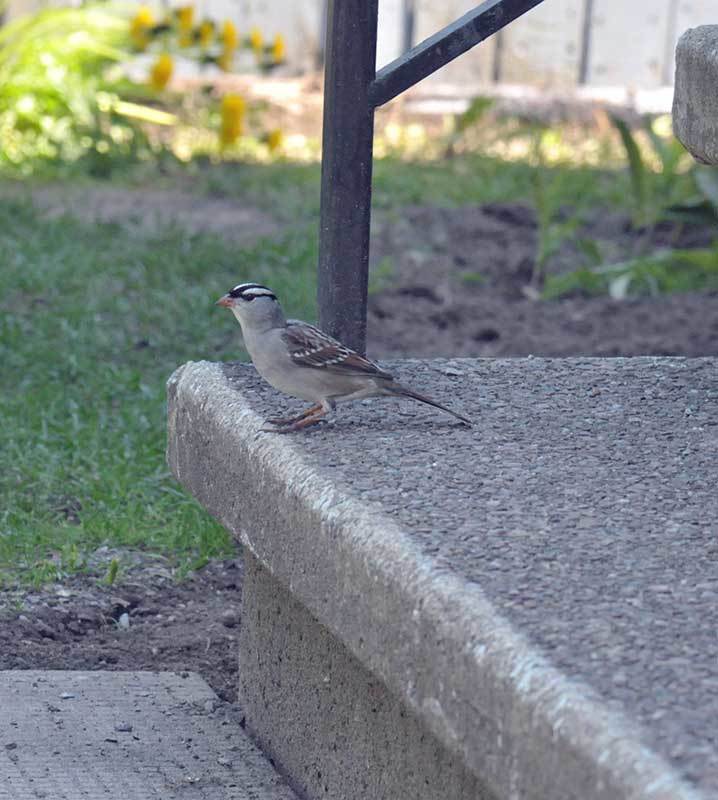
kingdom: Animalia
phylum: Chordata
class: Aves
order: Passeriformes
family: Passerellidae
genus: Zonotrichia
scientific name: Zonotrichia leucophrys
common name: White-crowned sparrow
